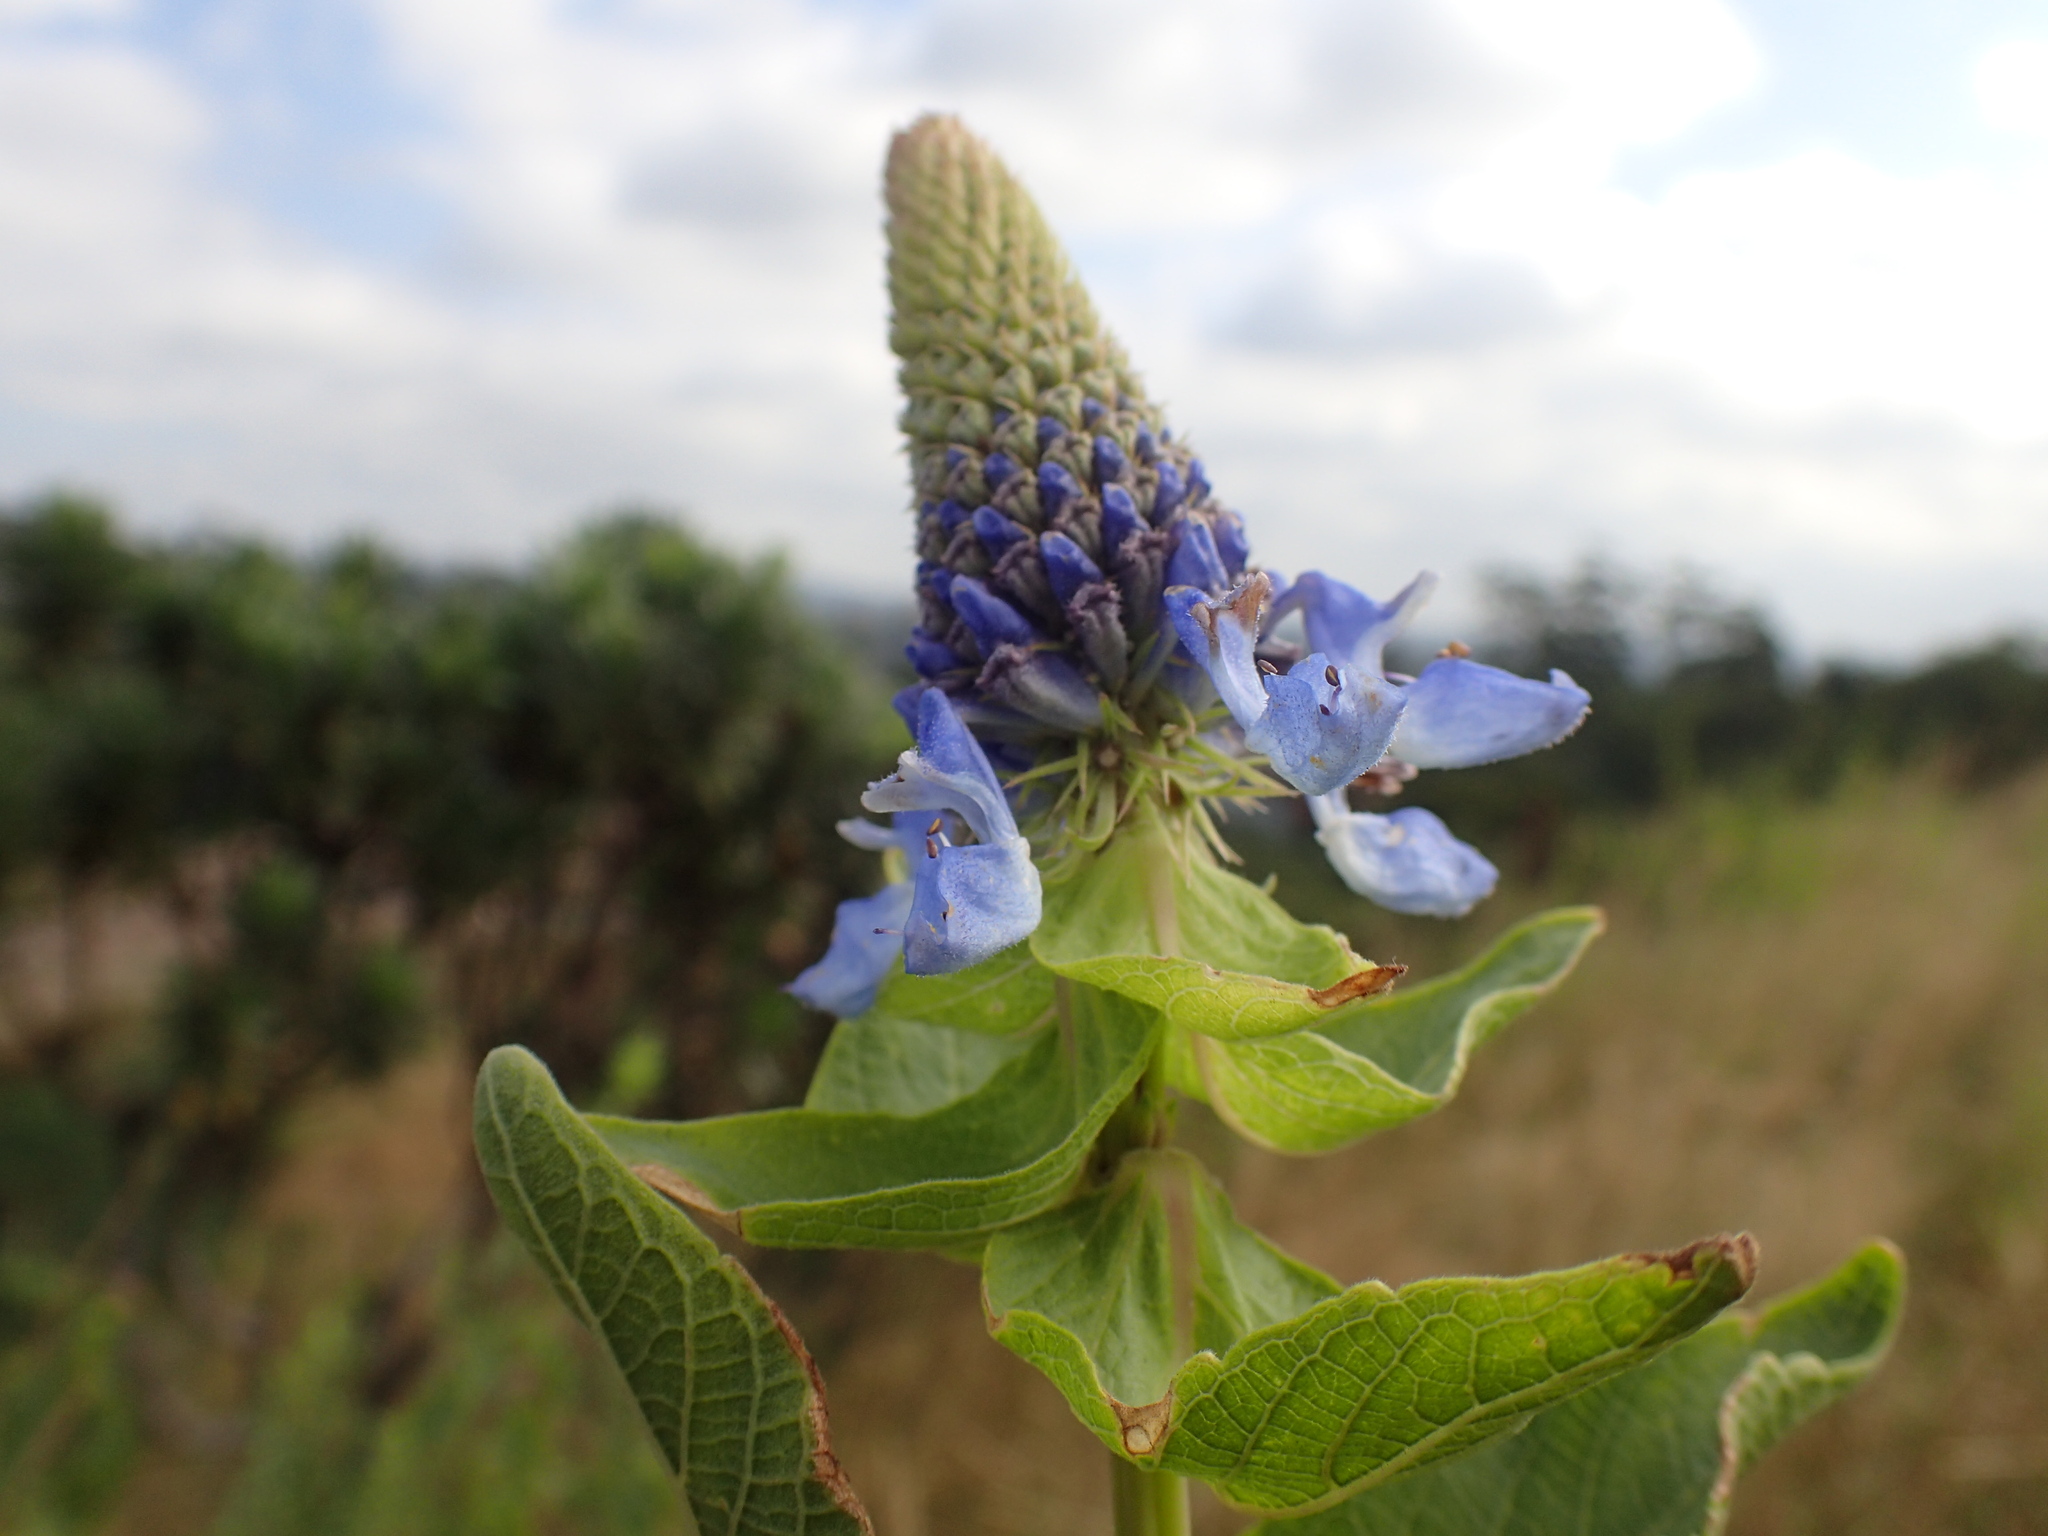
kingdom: Plantae
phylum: Tracheophyta
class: Magnoliopsida
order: Lamiales
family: Lamiaceae
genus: Coleus
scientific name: Coleus livingstonei
